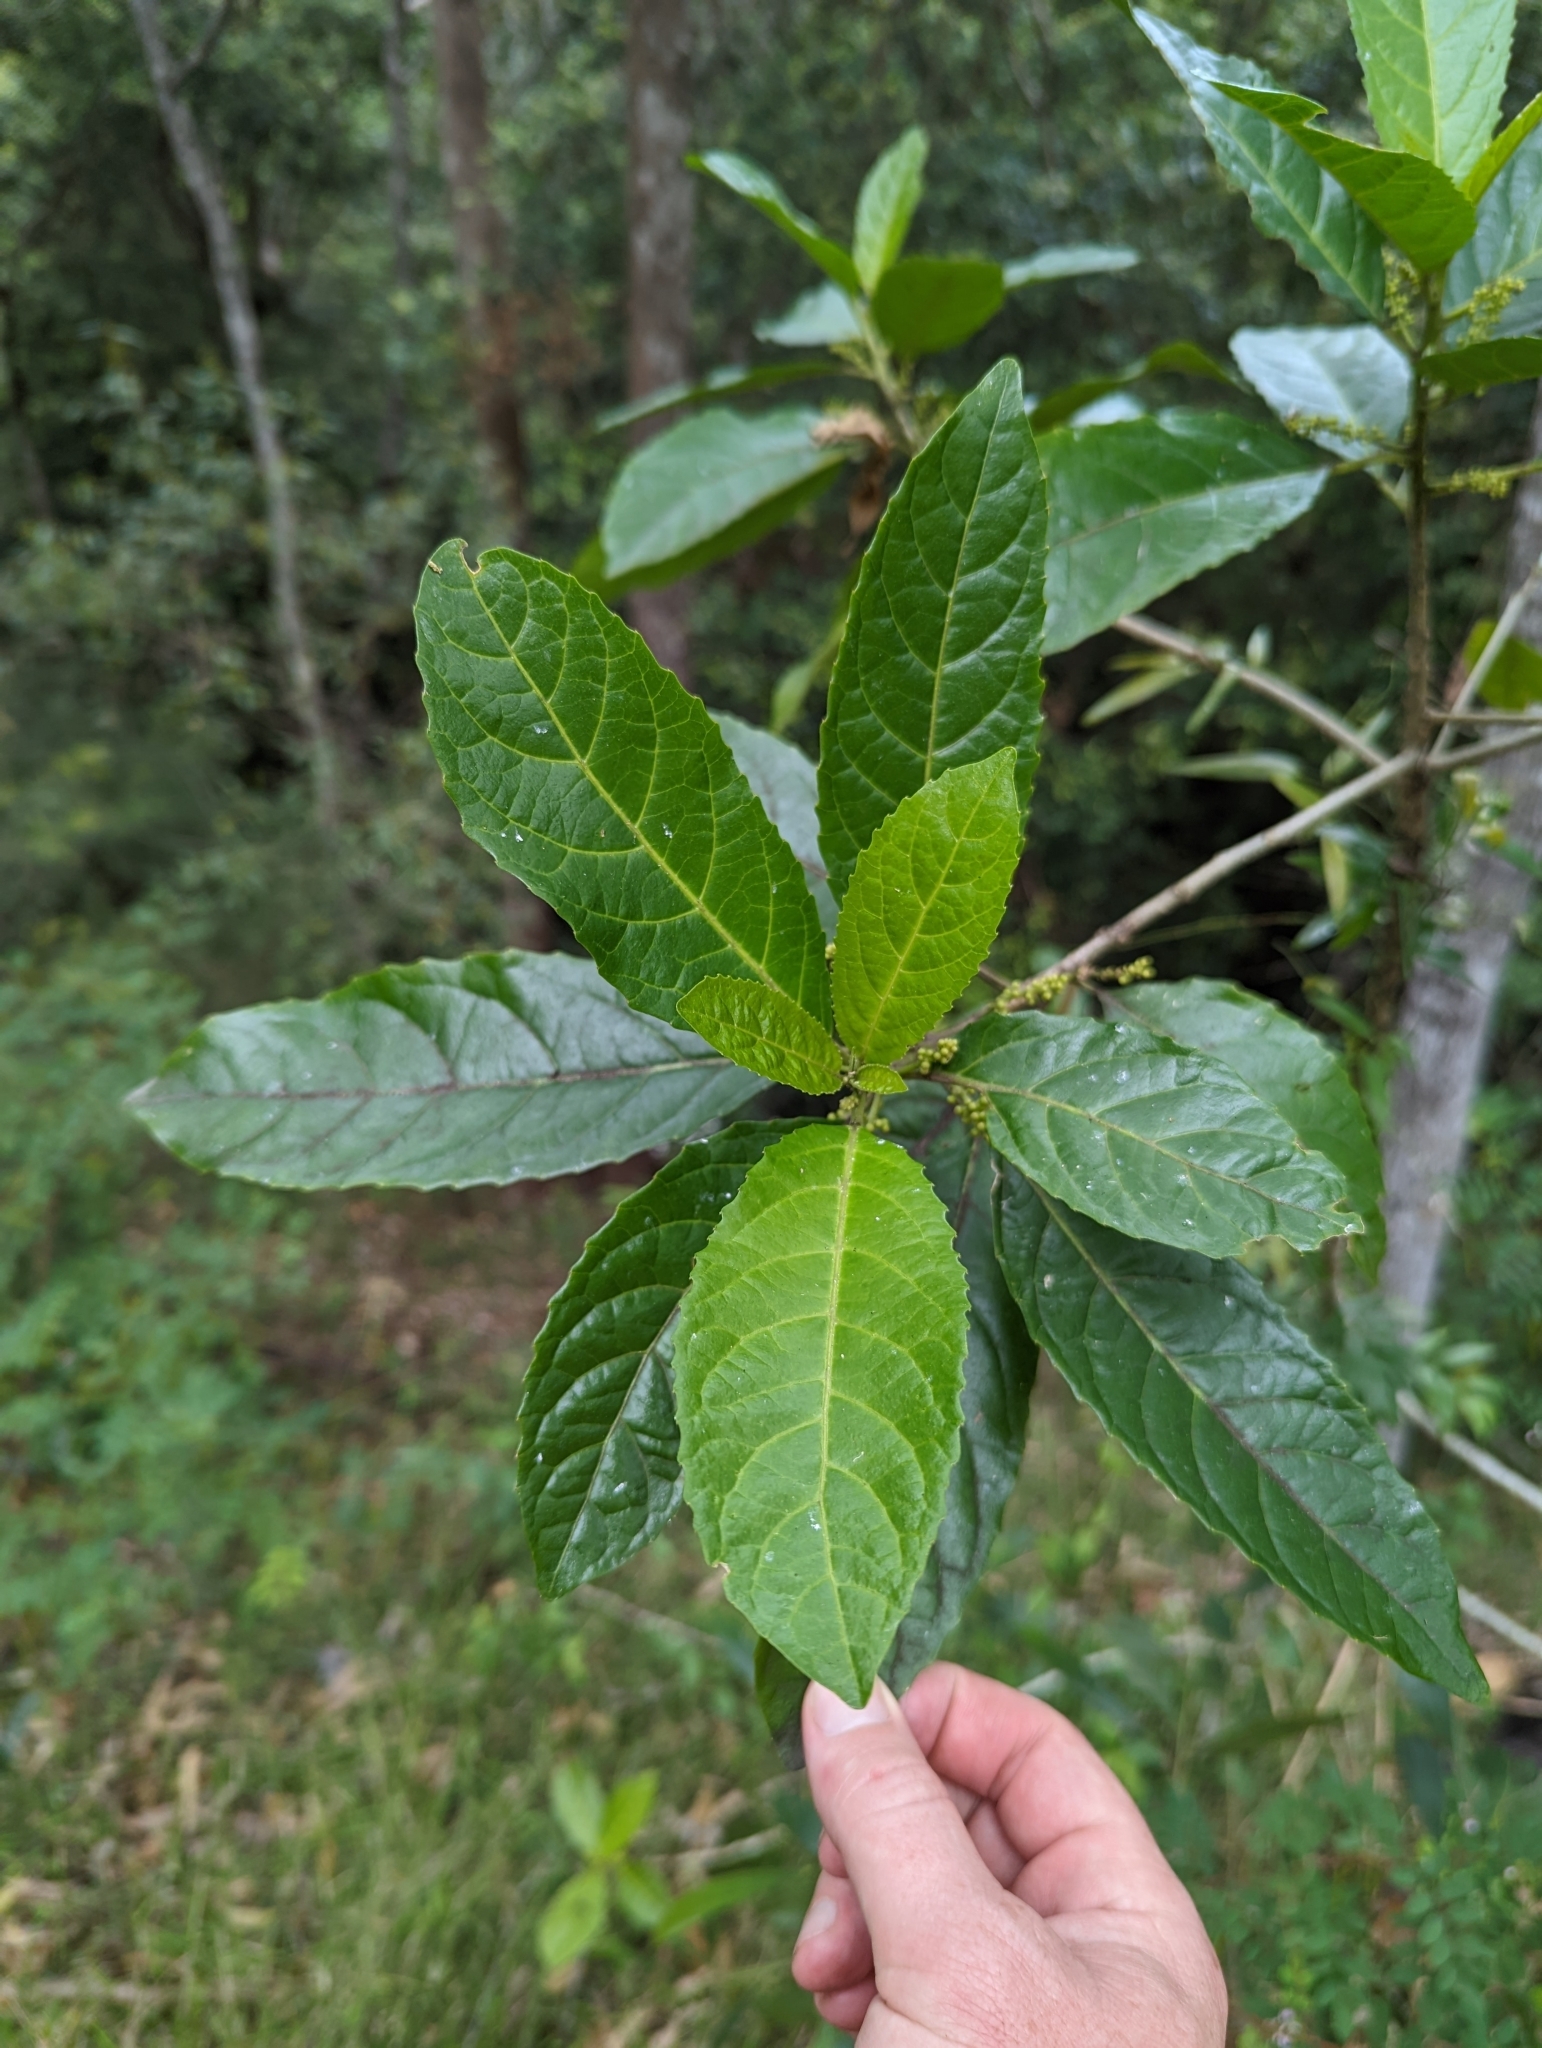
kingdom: Plantae
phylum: Tracheophyta
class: Magnoliopsida
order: Malpighiales
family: Euphorbiaceae
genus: Claoxylon
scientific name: Claoxylon australe
